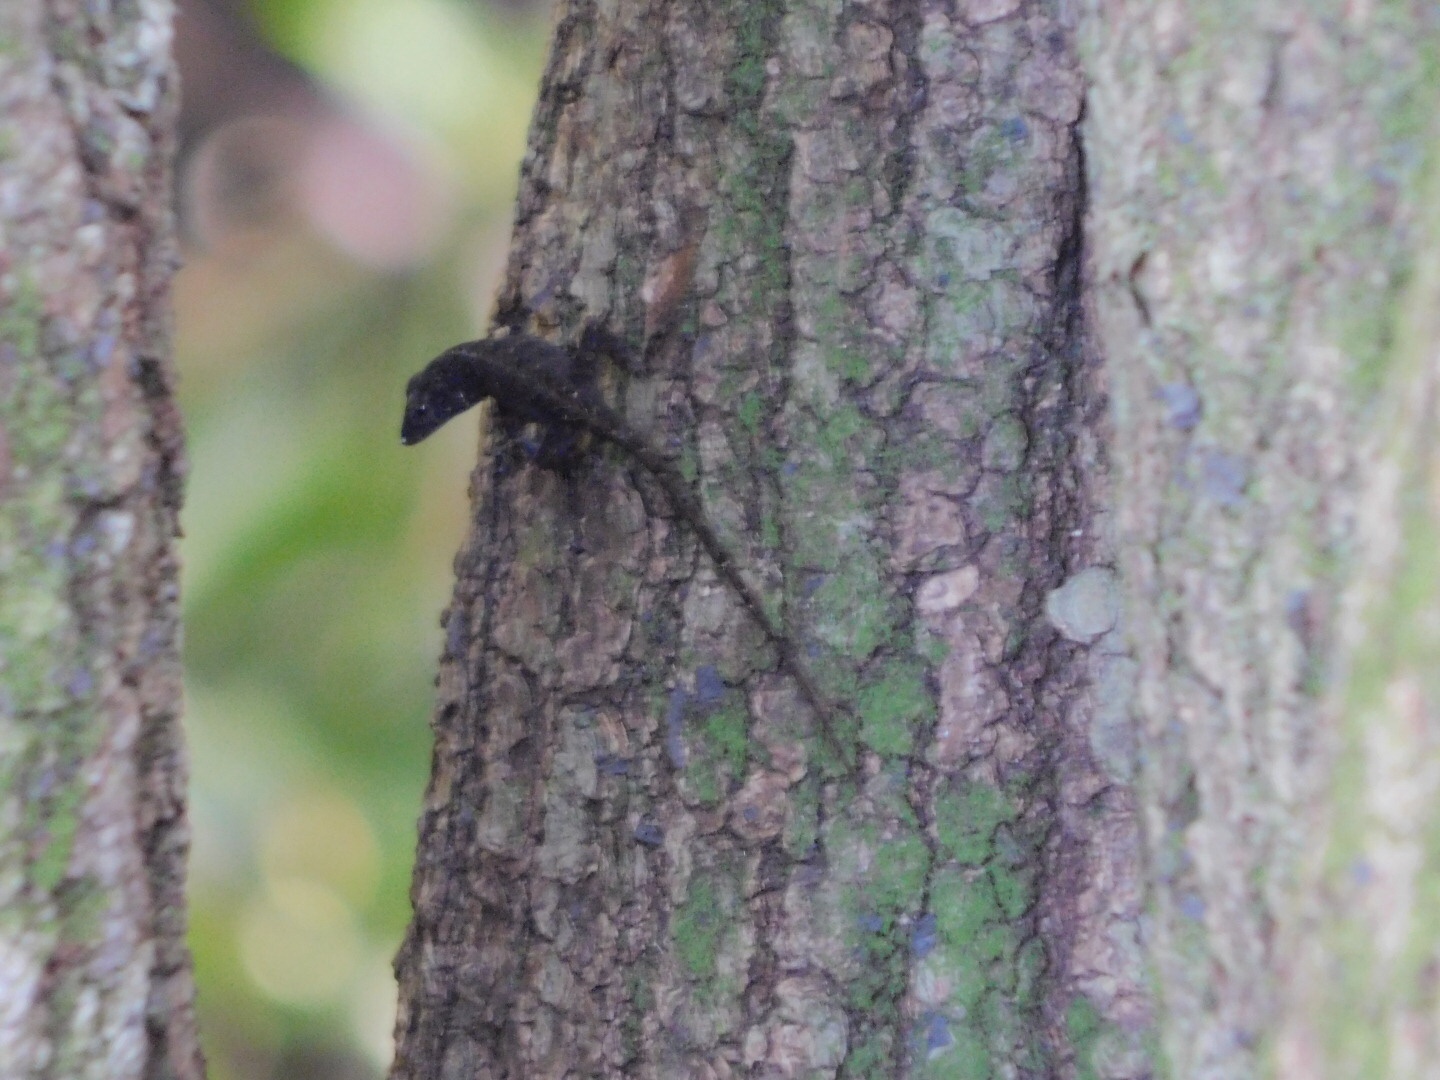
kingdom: Animalia
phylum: Chordata
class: Squamata
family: Dactyloidae
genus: Anolis
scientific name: Anolis sagrei
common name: Brown anole
